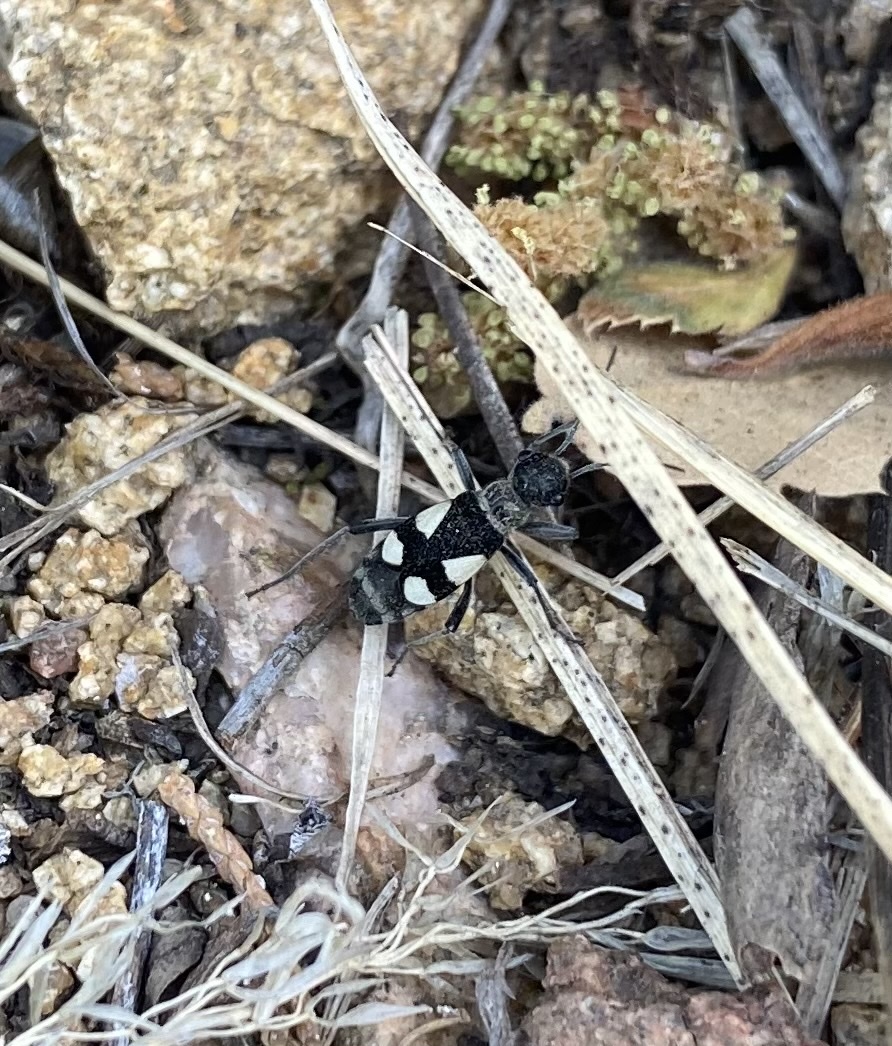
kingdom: Animalia
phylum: Arthropoda
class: Insecta
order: Hemiptera
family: Largidae
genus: Arhaphe
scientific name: Arhaphe arguta
